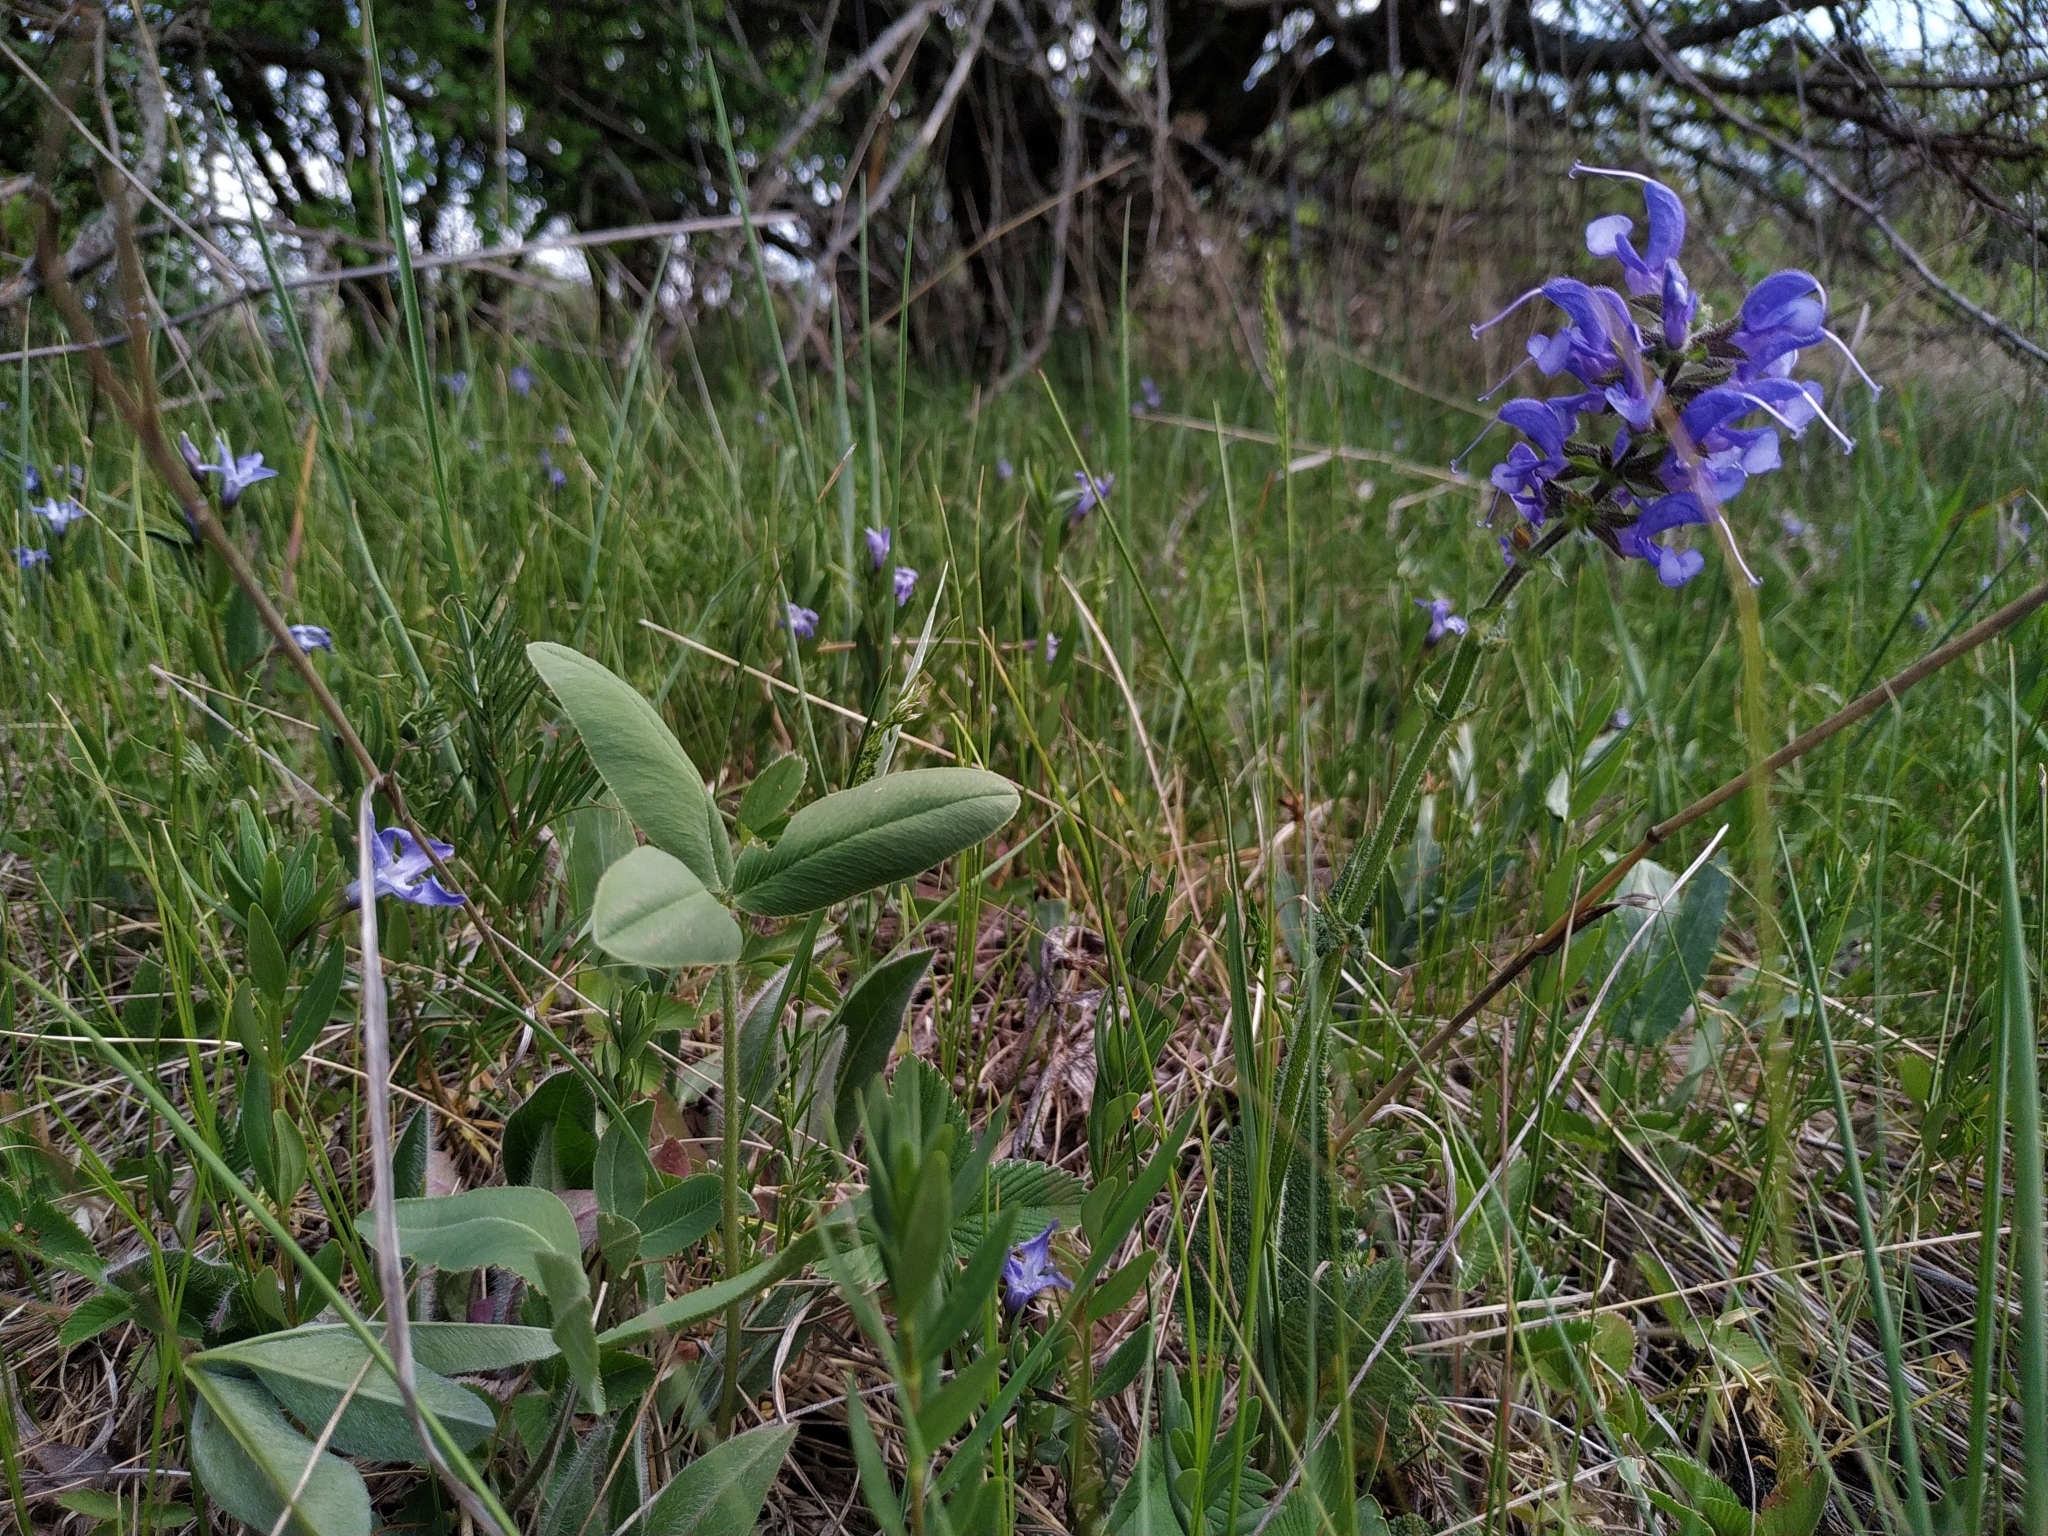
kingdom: Plantae
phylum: Tracheophyta
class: Magnoliopsida
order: Lamiales
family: Lamiaceae
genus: Salvia
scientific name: Salvia pratensis
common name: Meadow sage
